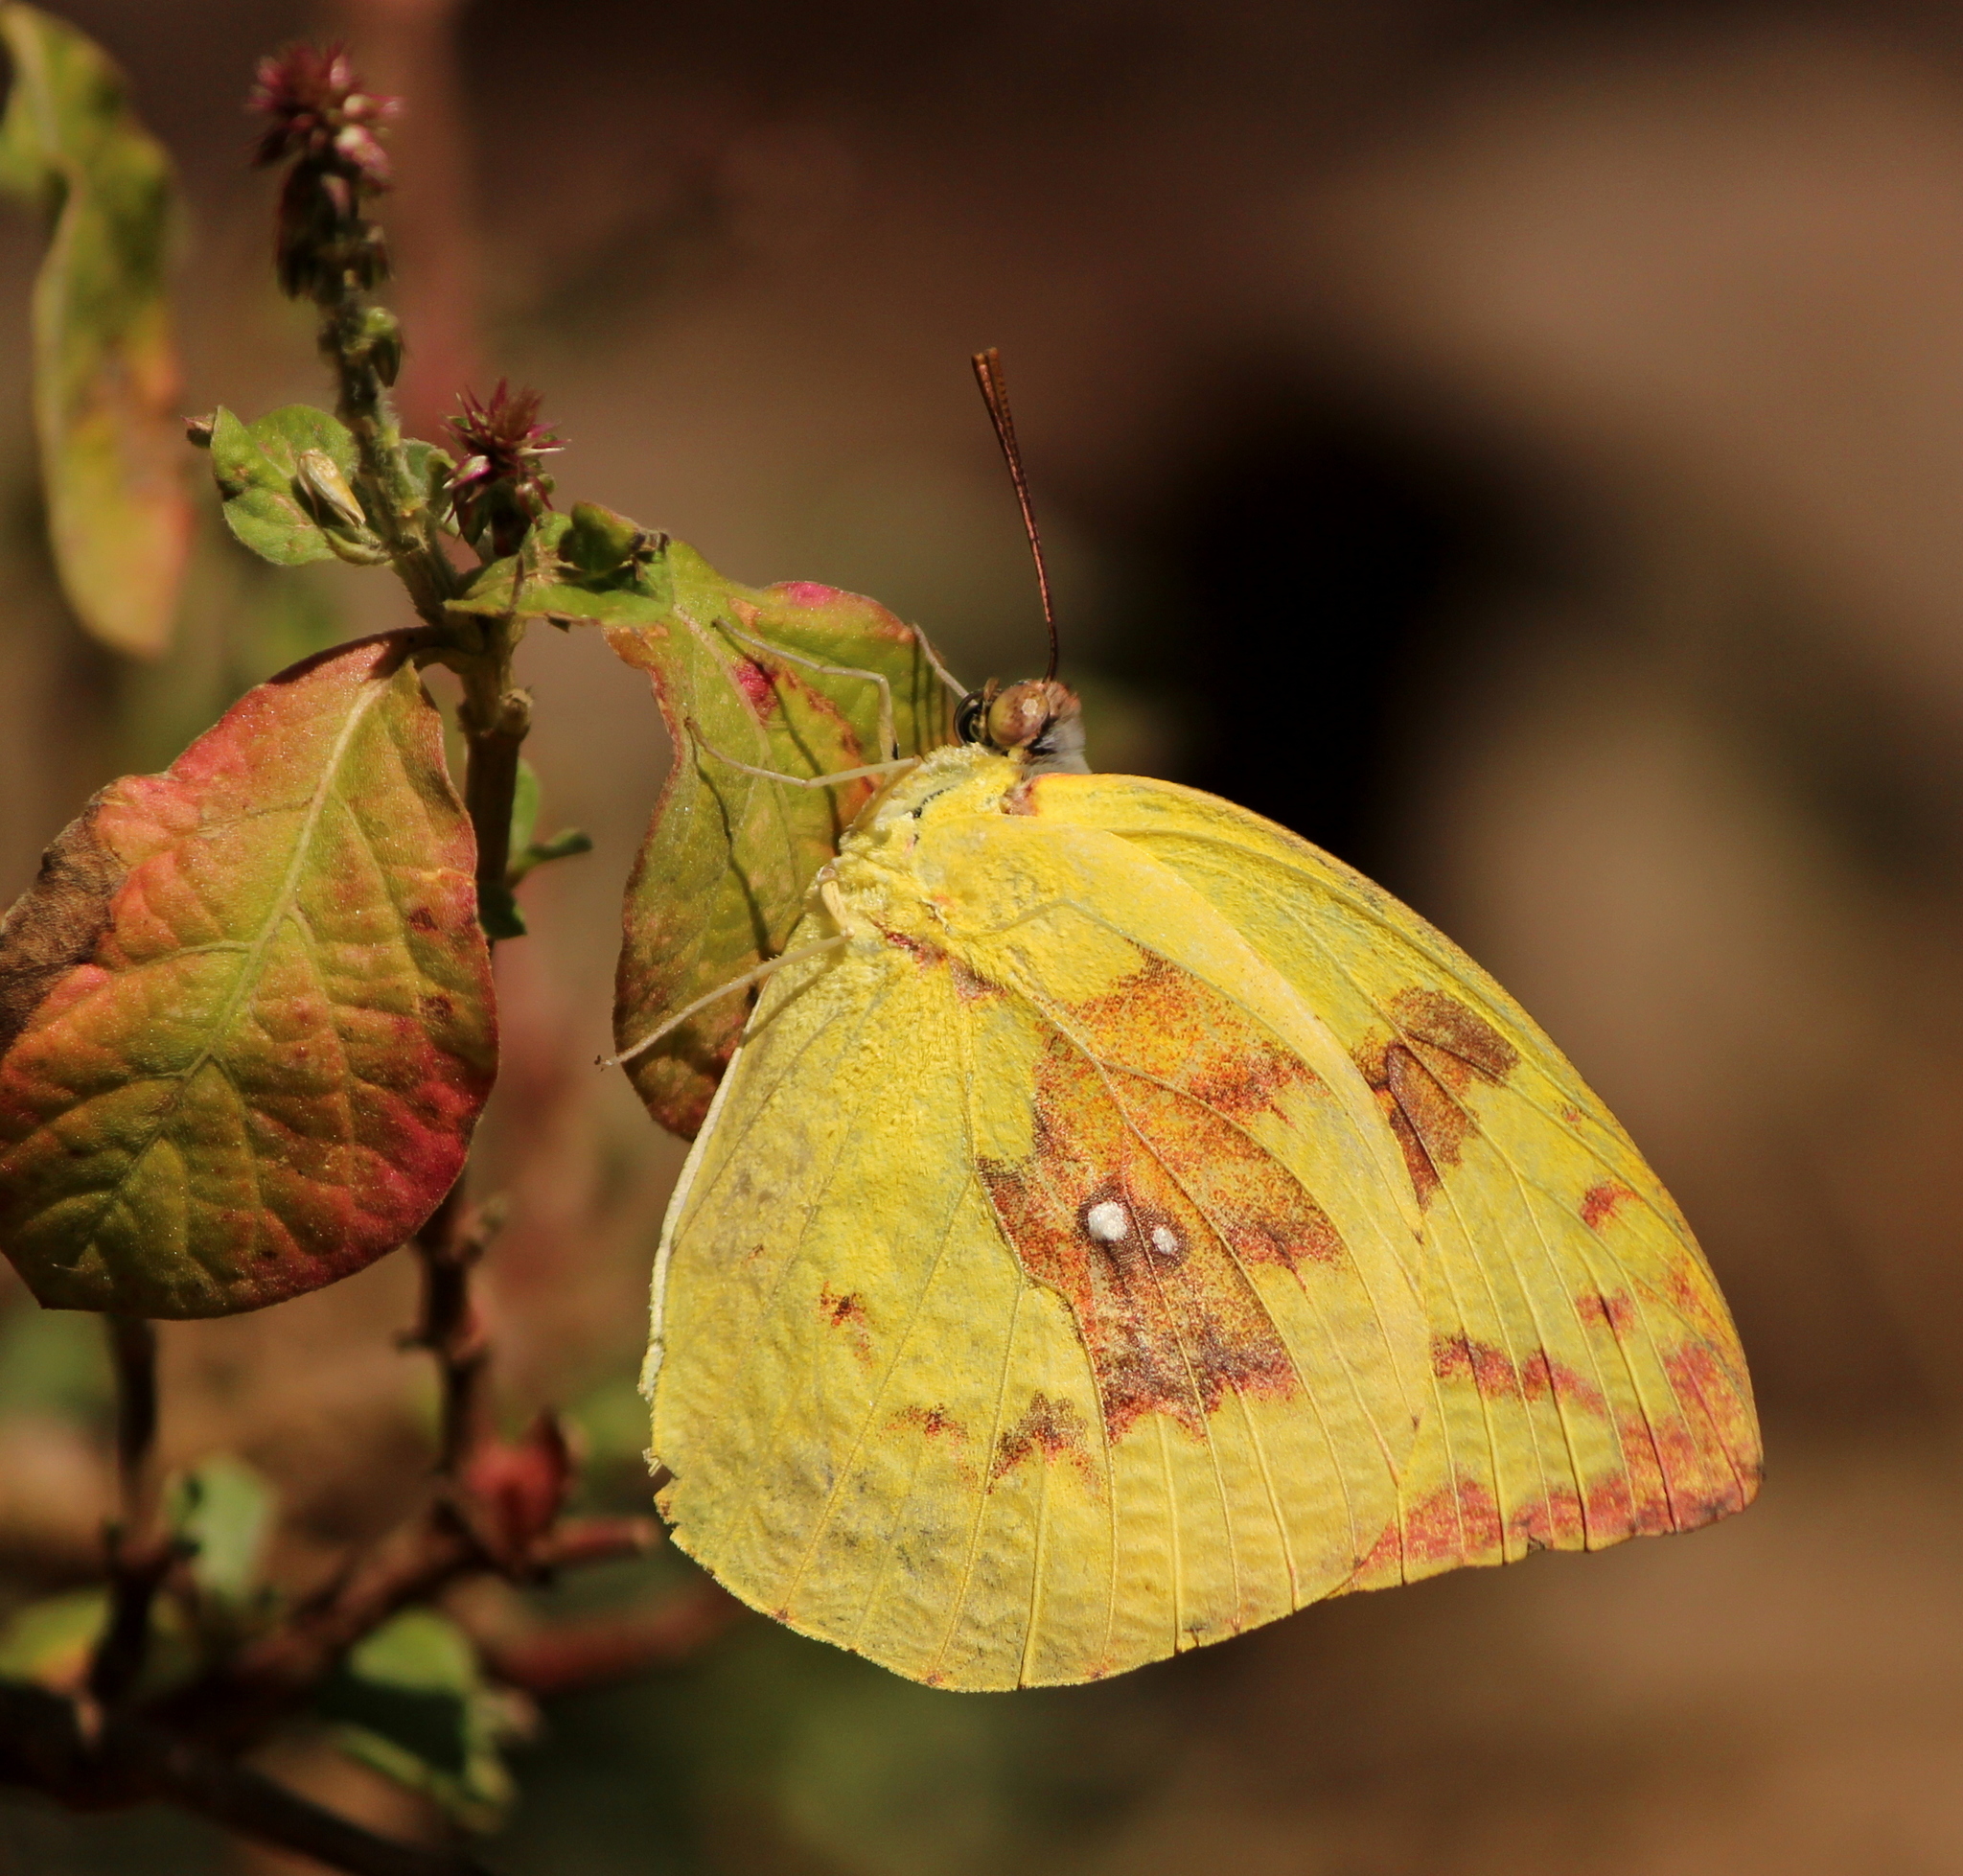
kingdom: Animalia
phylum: Arthropoda
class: Insecta
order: Lepidoptera
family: Pieridae
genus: Catopsilia
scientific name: Catopsilia pomona
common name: Common emigrant
